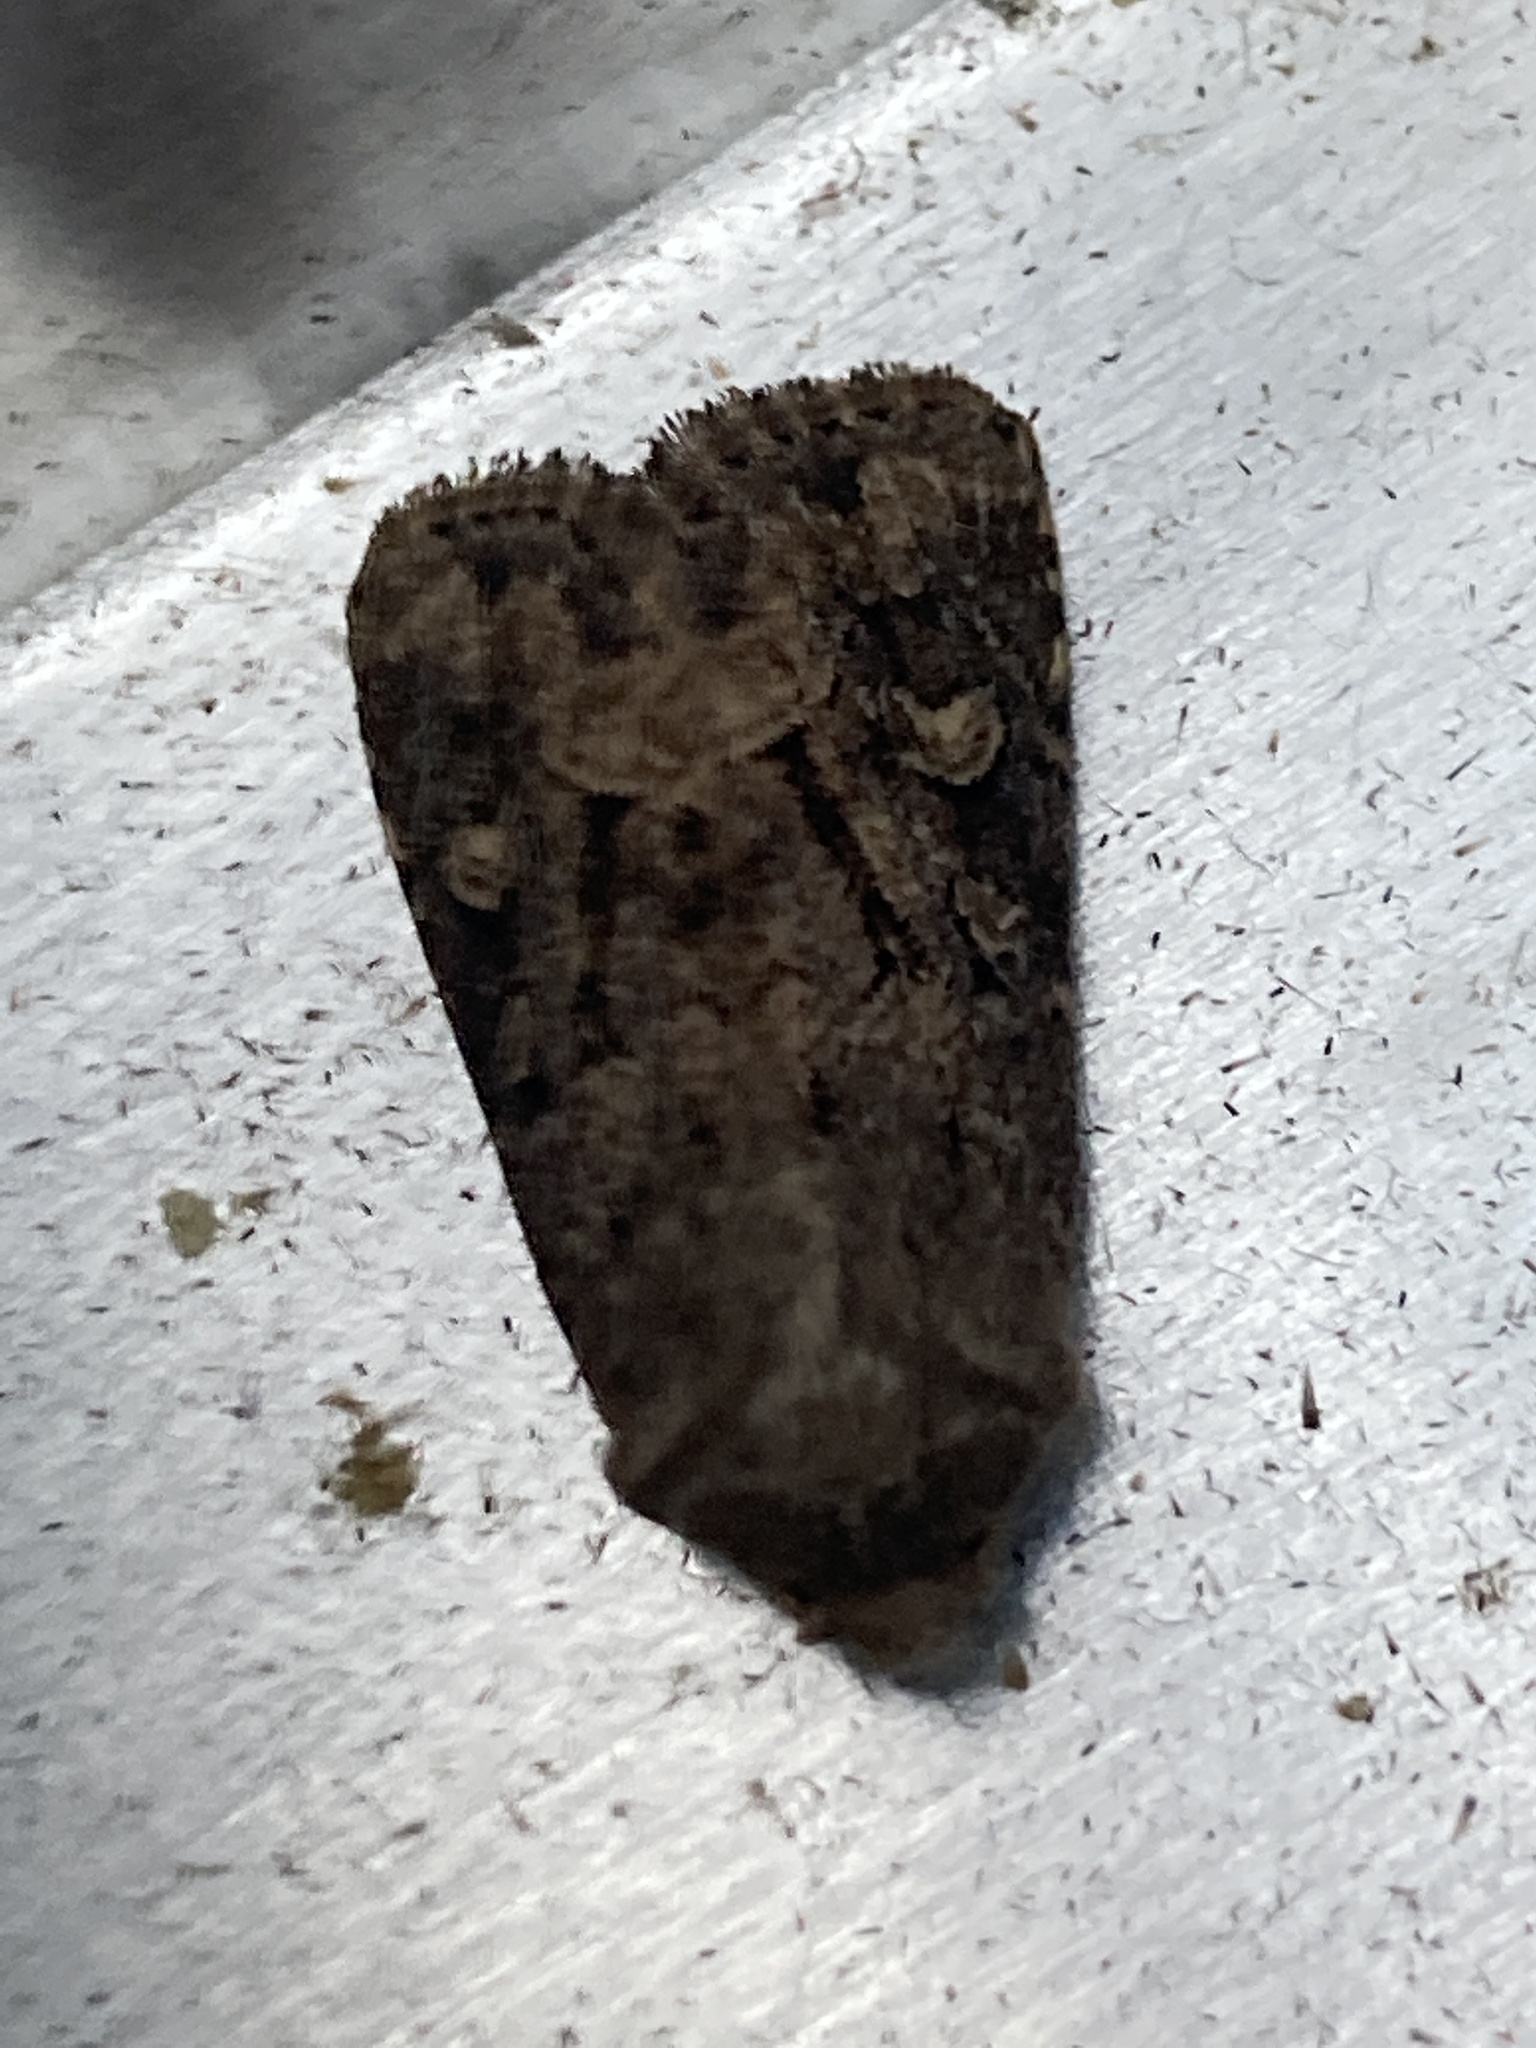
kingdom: Animalia
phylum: Arthropoda
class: Insecta
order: Lepidoptera
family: Noctuidae
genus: Luperina
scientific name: Luperina testacea
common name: Flounced rustic
